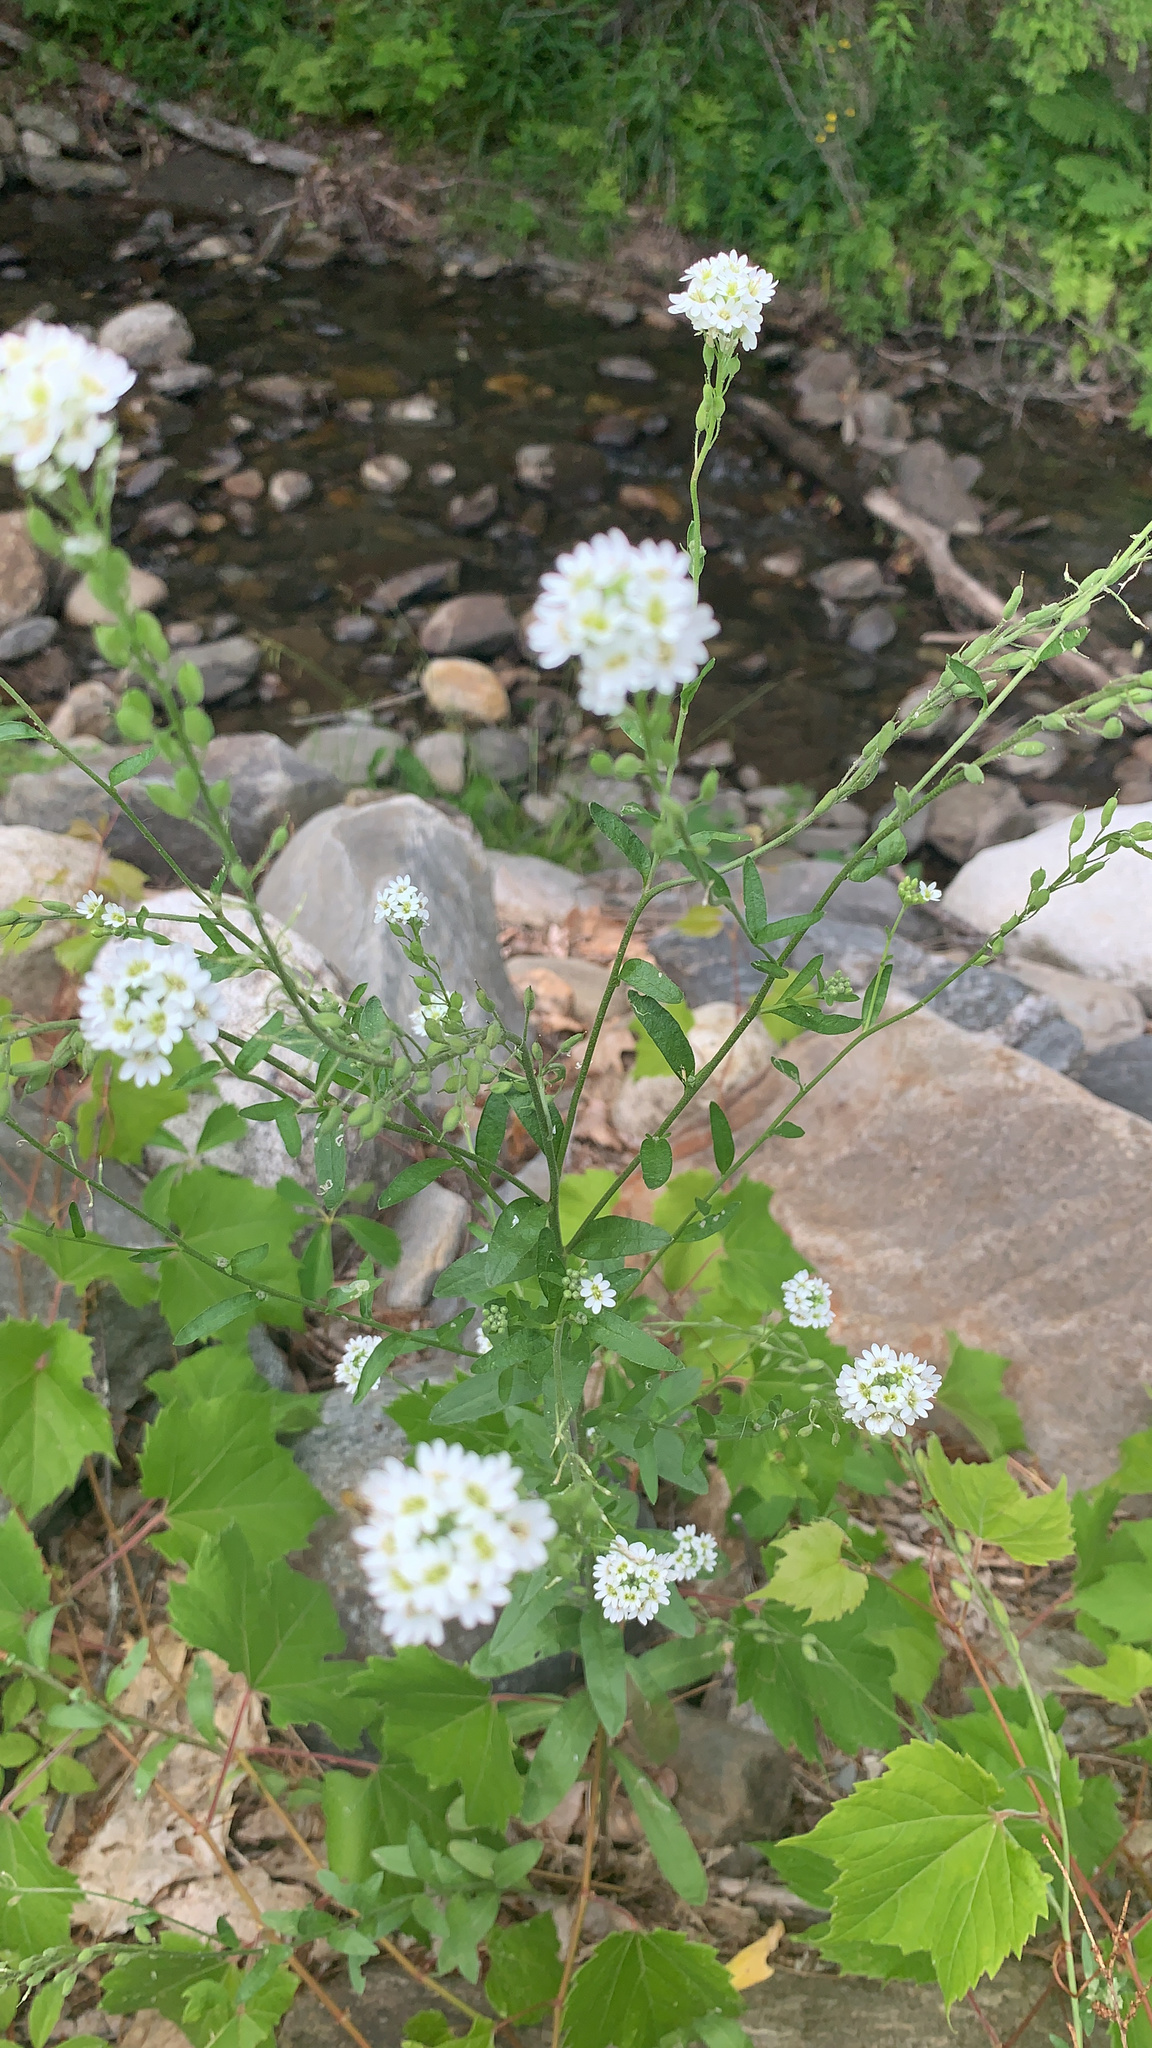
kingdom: Plantae
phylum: Tracheophyta
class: Magnoliopsida
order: Brassicales
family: Brassicaceae
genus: Berteroa
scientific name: Berteroa incana
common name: Hoary alison
